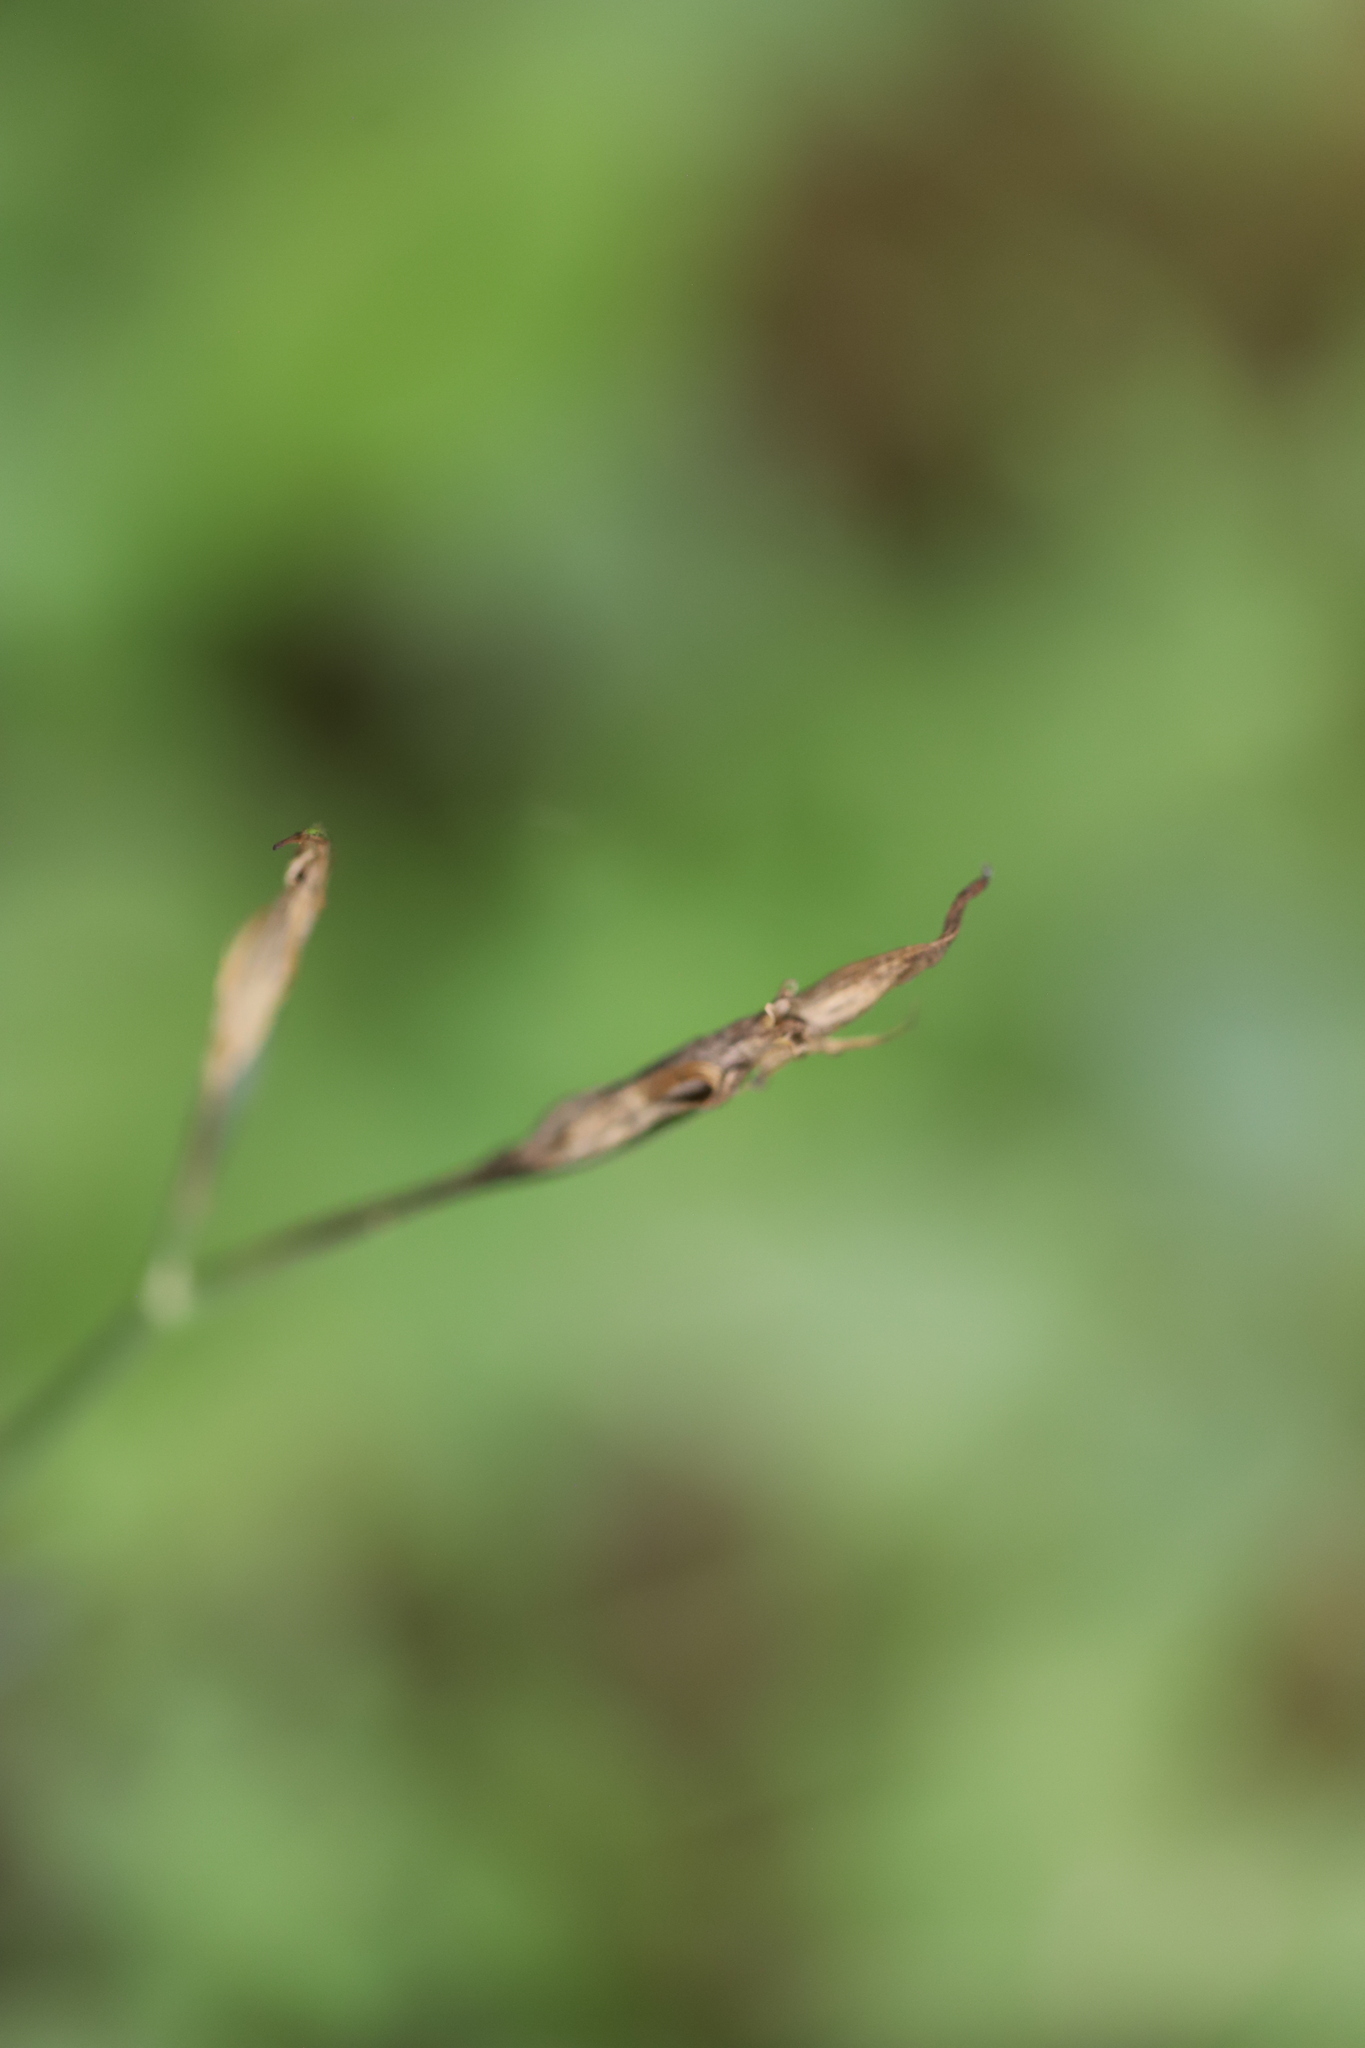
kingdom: Plantae
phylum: Tracheophyta
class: Magnoliopsida
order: Caryophyllales
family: Caryophyllaceae
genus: Dianthus
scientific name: Dianthus armeria
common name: Deptford pink
